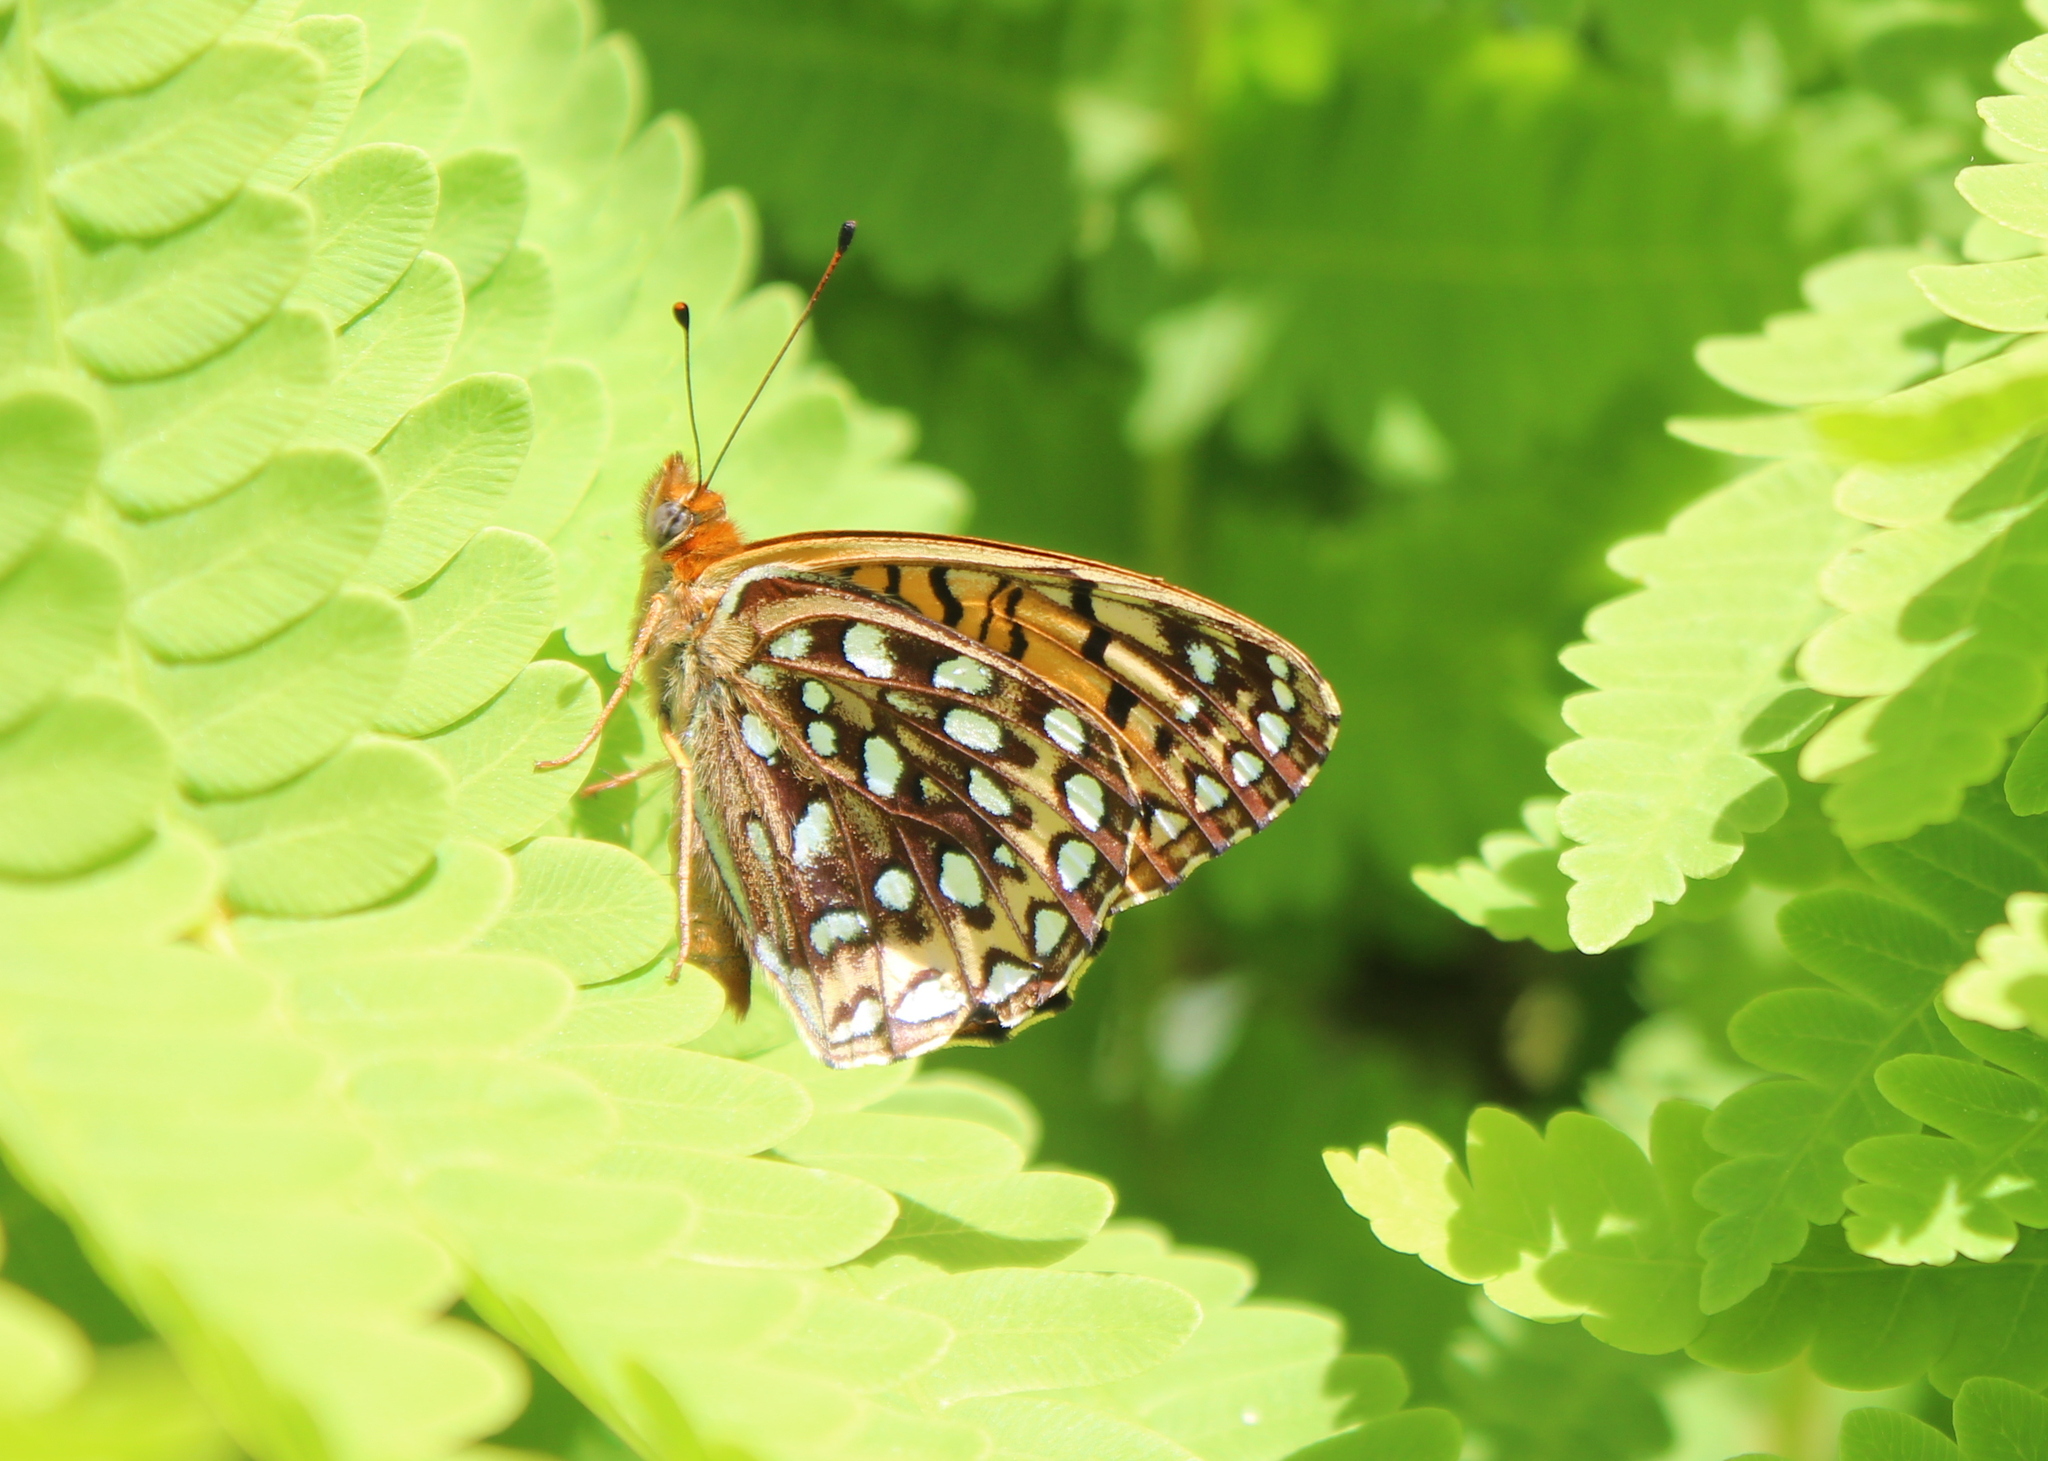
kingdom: Animalia
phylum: Arthropoda
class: Insecta
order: Lepidoptera
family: Nymphalidae
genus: Speyeria
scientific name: Speyeria atlantis
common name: Atlantis fritillary
